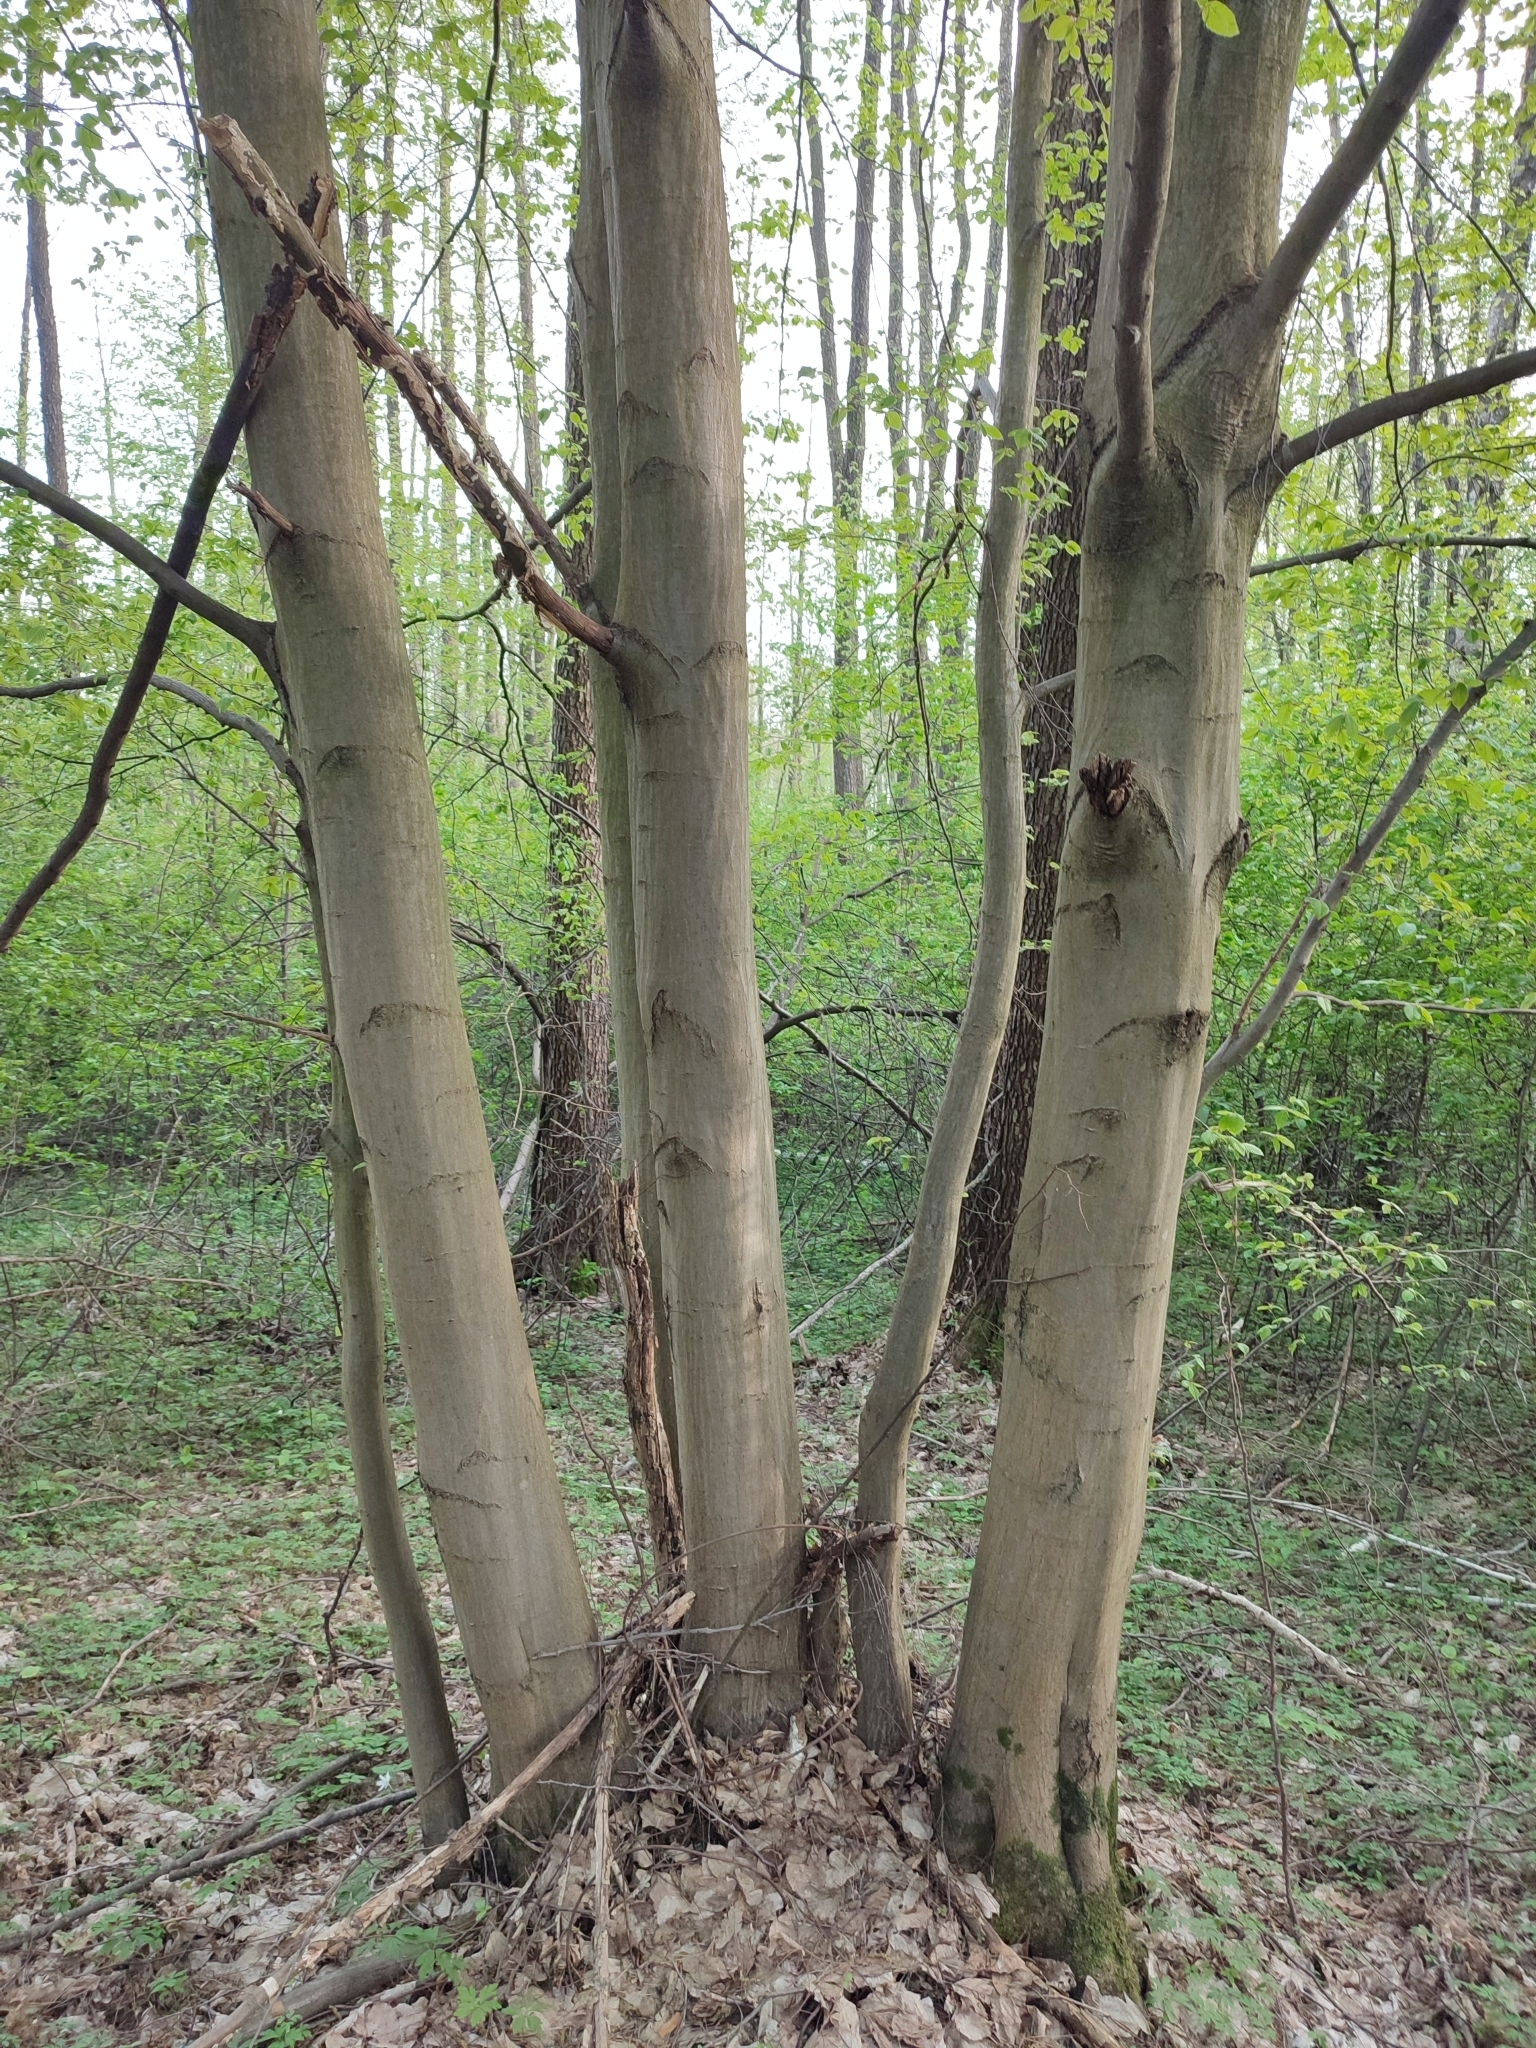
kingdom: Plantae
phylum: Tracheophyta
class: Magnoliopsida
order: Fagales
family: Betulaceae
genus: Carpinus
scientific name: Carpinus betulus
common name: Hornbeam
